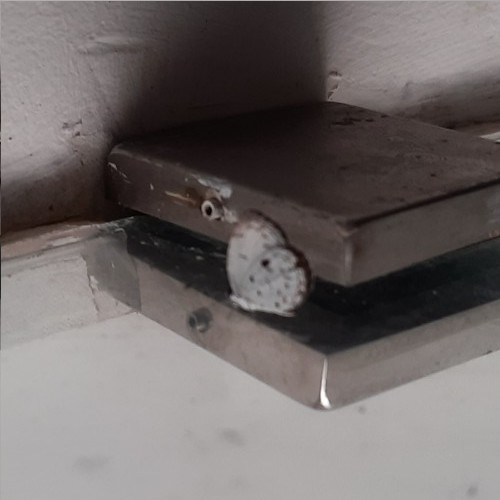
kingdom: Animalia
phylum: Arthropoda
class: Insecta
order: Lepidoptera
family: Lycaenidae
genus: Neopithecops
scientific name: Neopithecops zalmora
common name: Quaker
